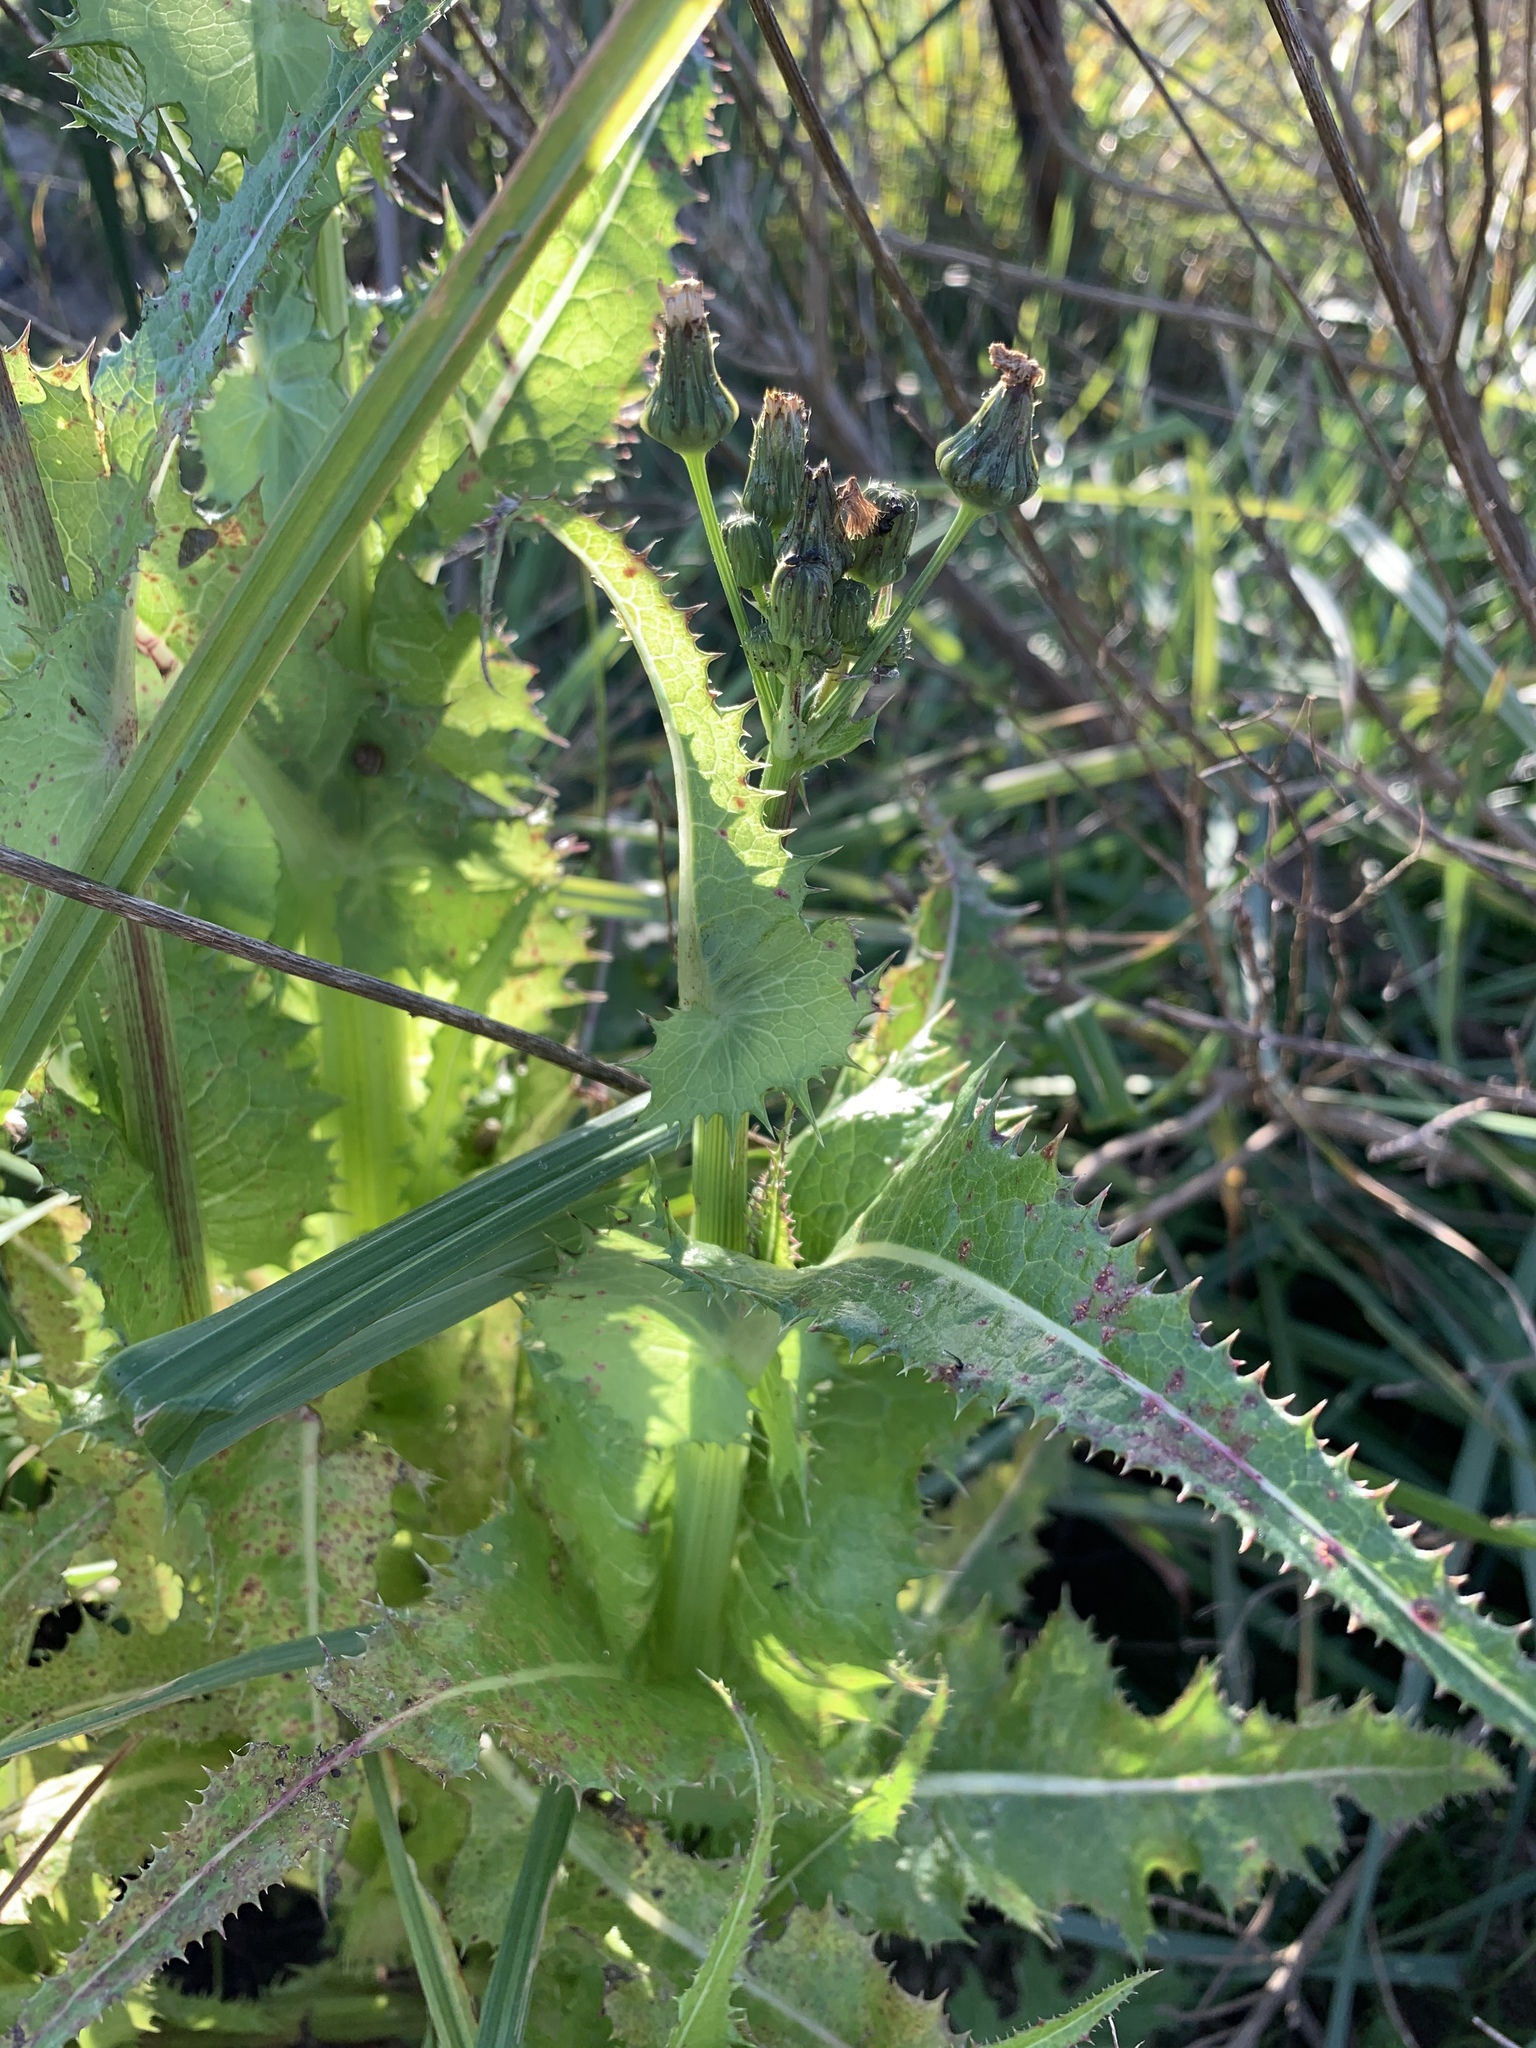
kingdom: Plantae
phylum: Tracheophyta
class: Magnoliopsida
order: Asterales
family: Asteraceae
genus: Sonchus
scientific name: Sonchus asper
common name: Prickly sow-thistle
